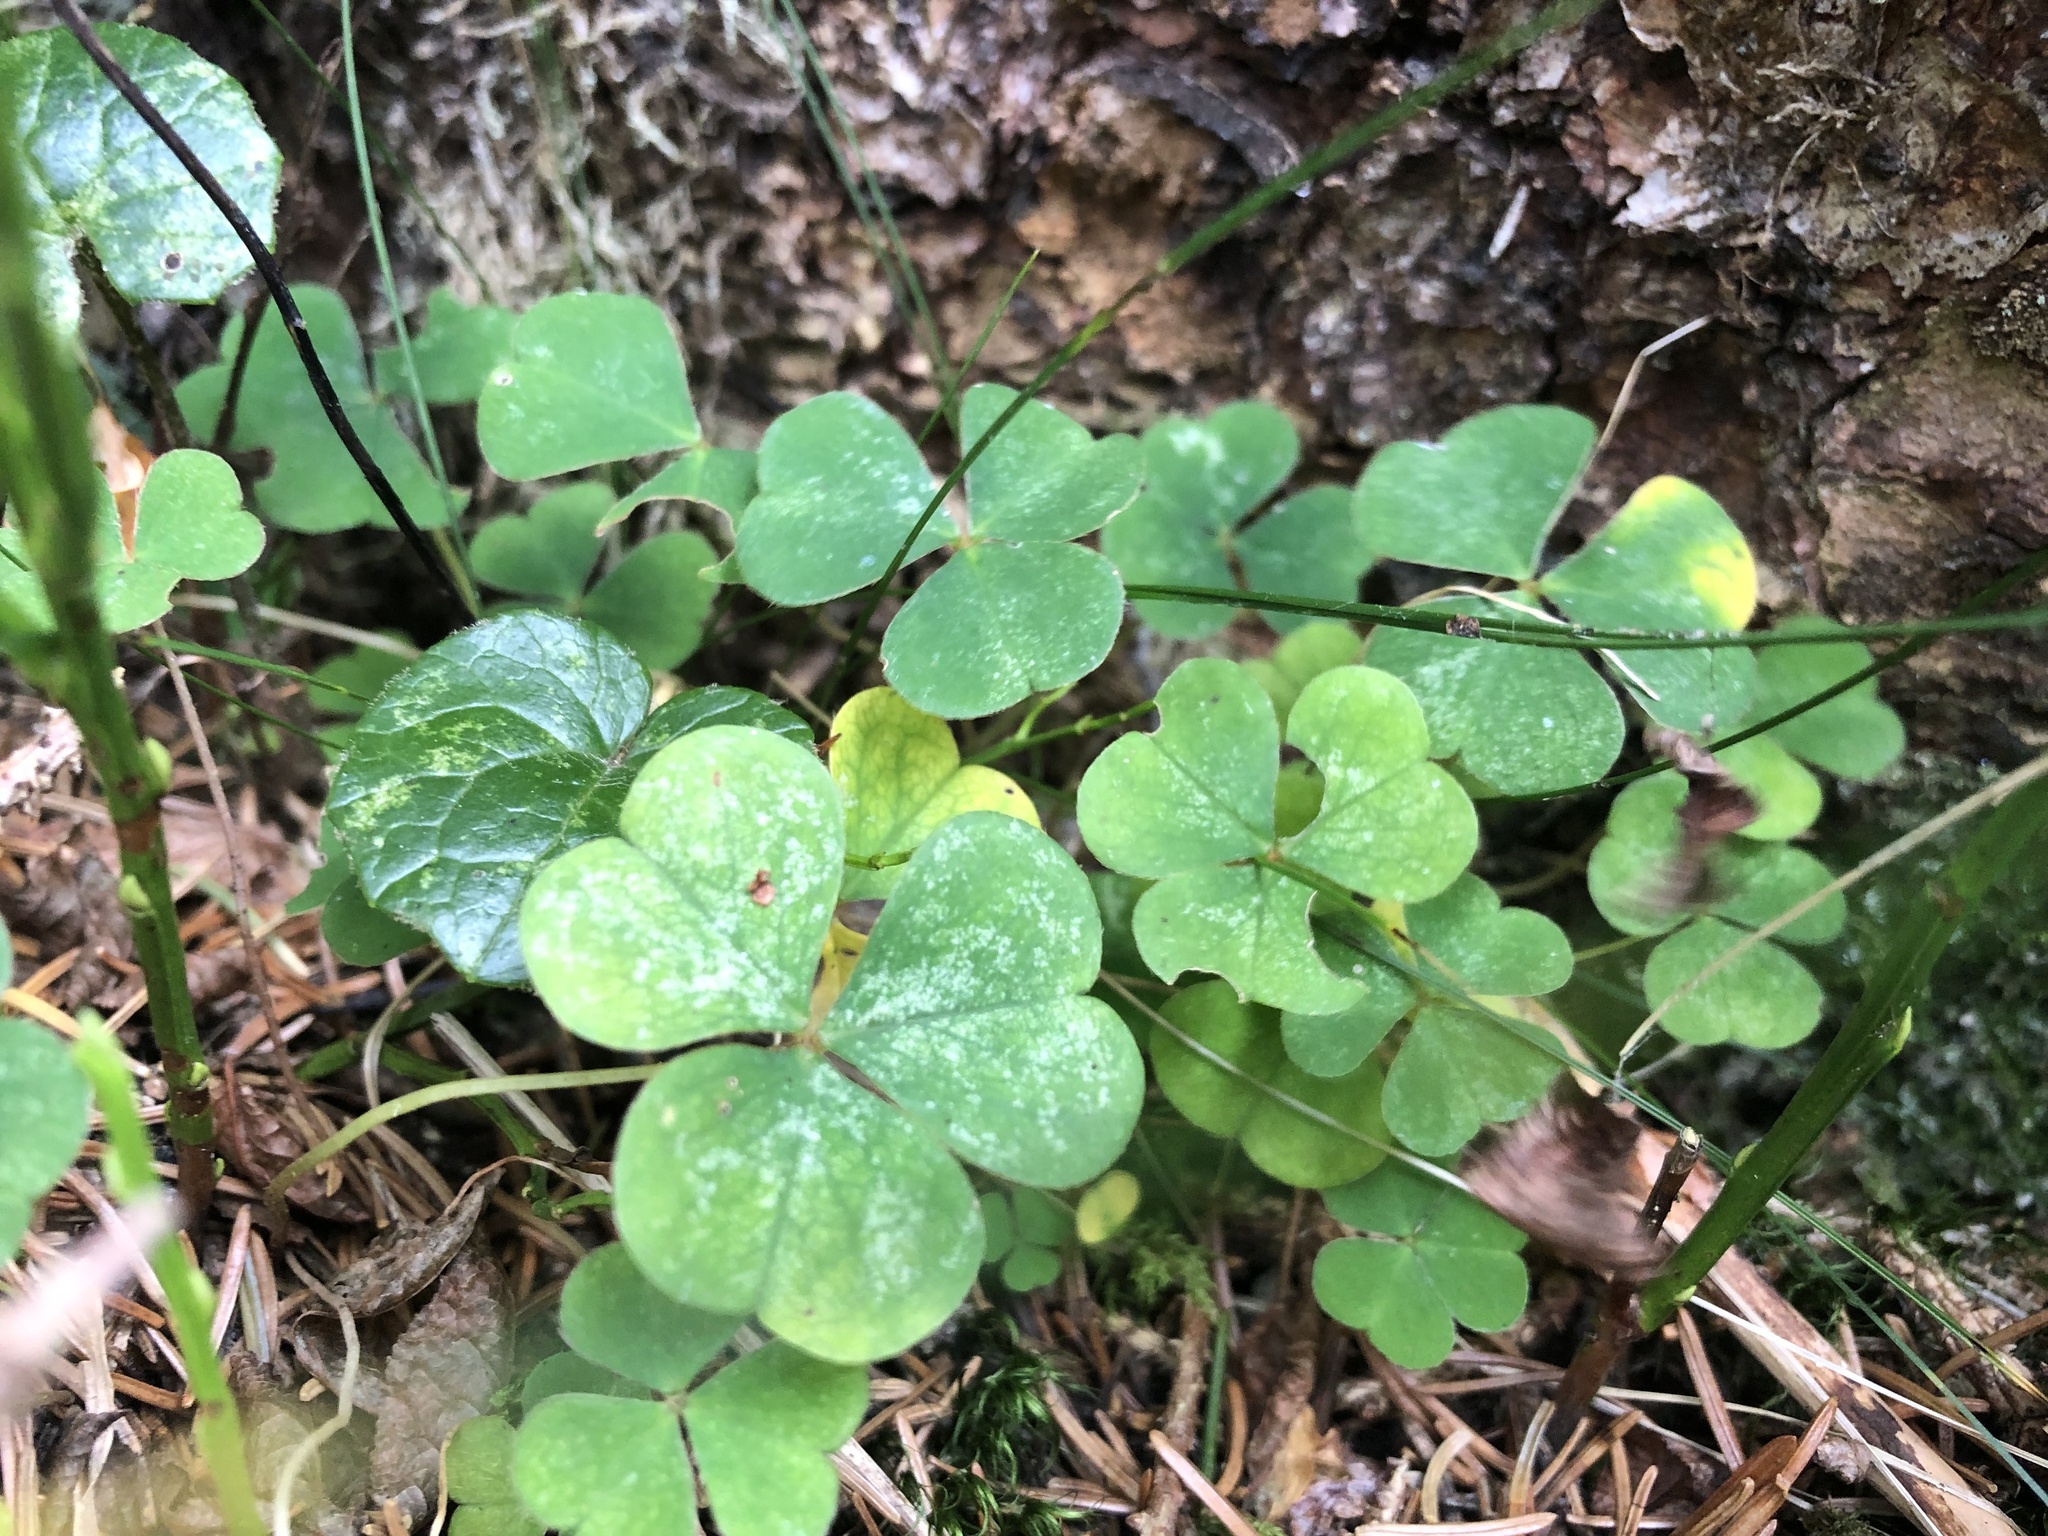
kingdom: Plantae
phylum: Tracheophyta
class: Magnoliopsida
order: Oxalidales
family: Oxalidaceae
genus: Oxalis
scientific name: Oxalis acetosella
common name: Wood-sorrel
